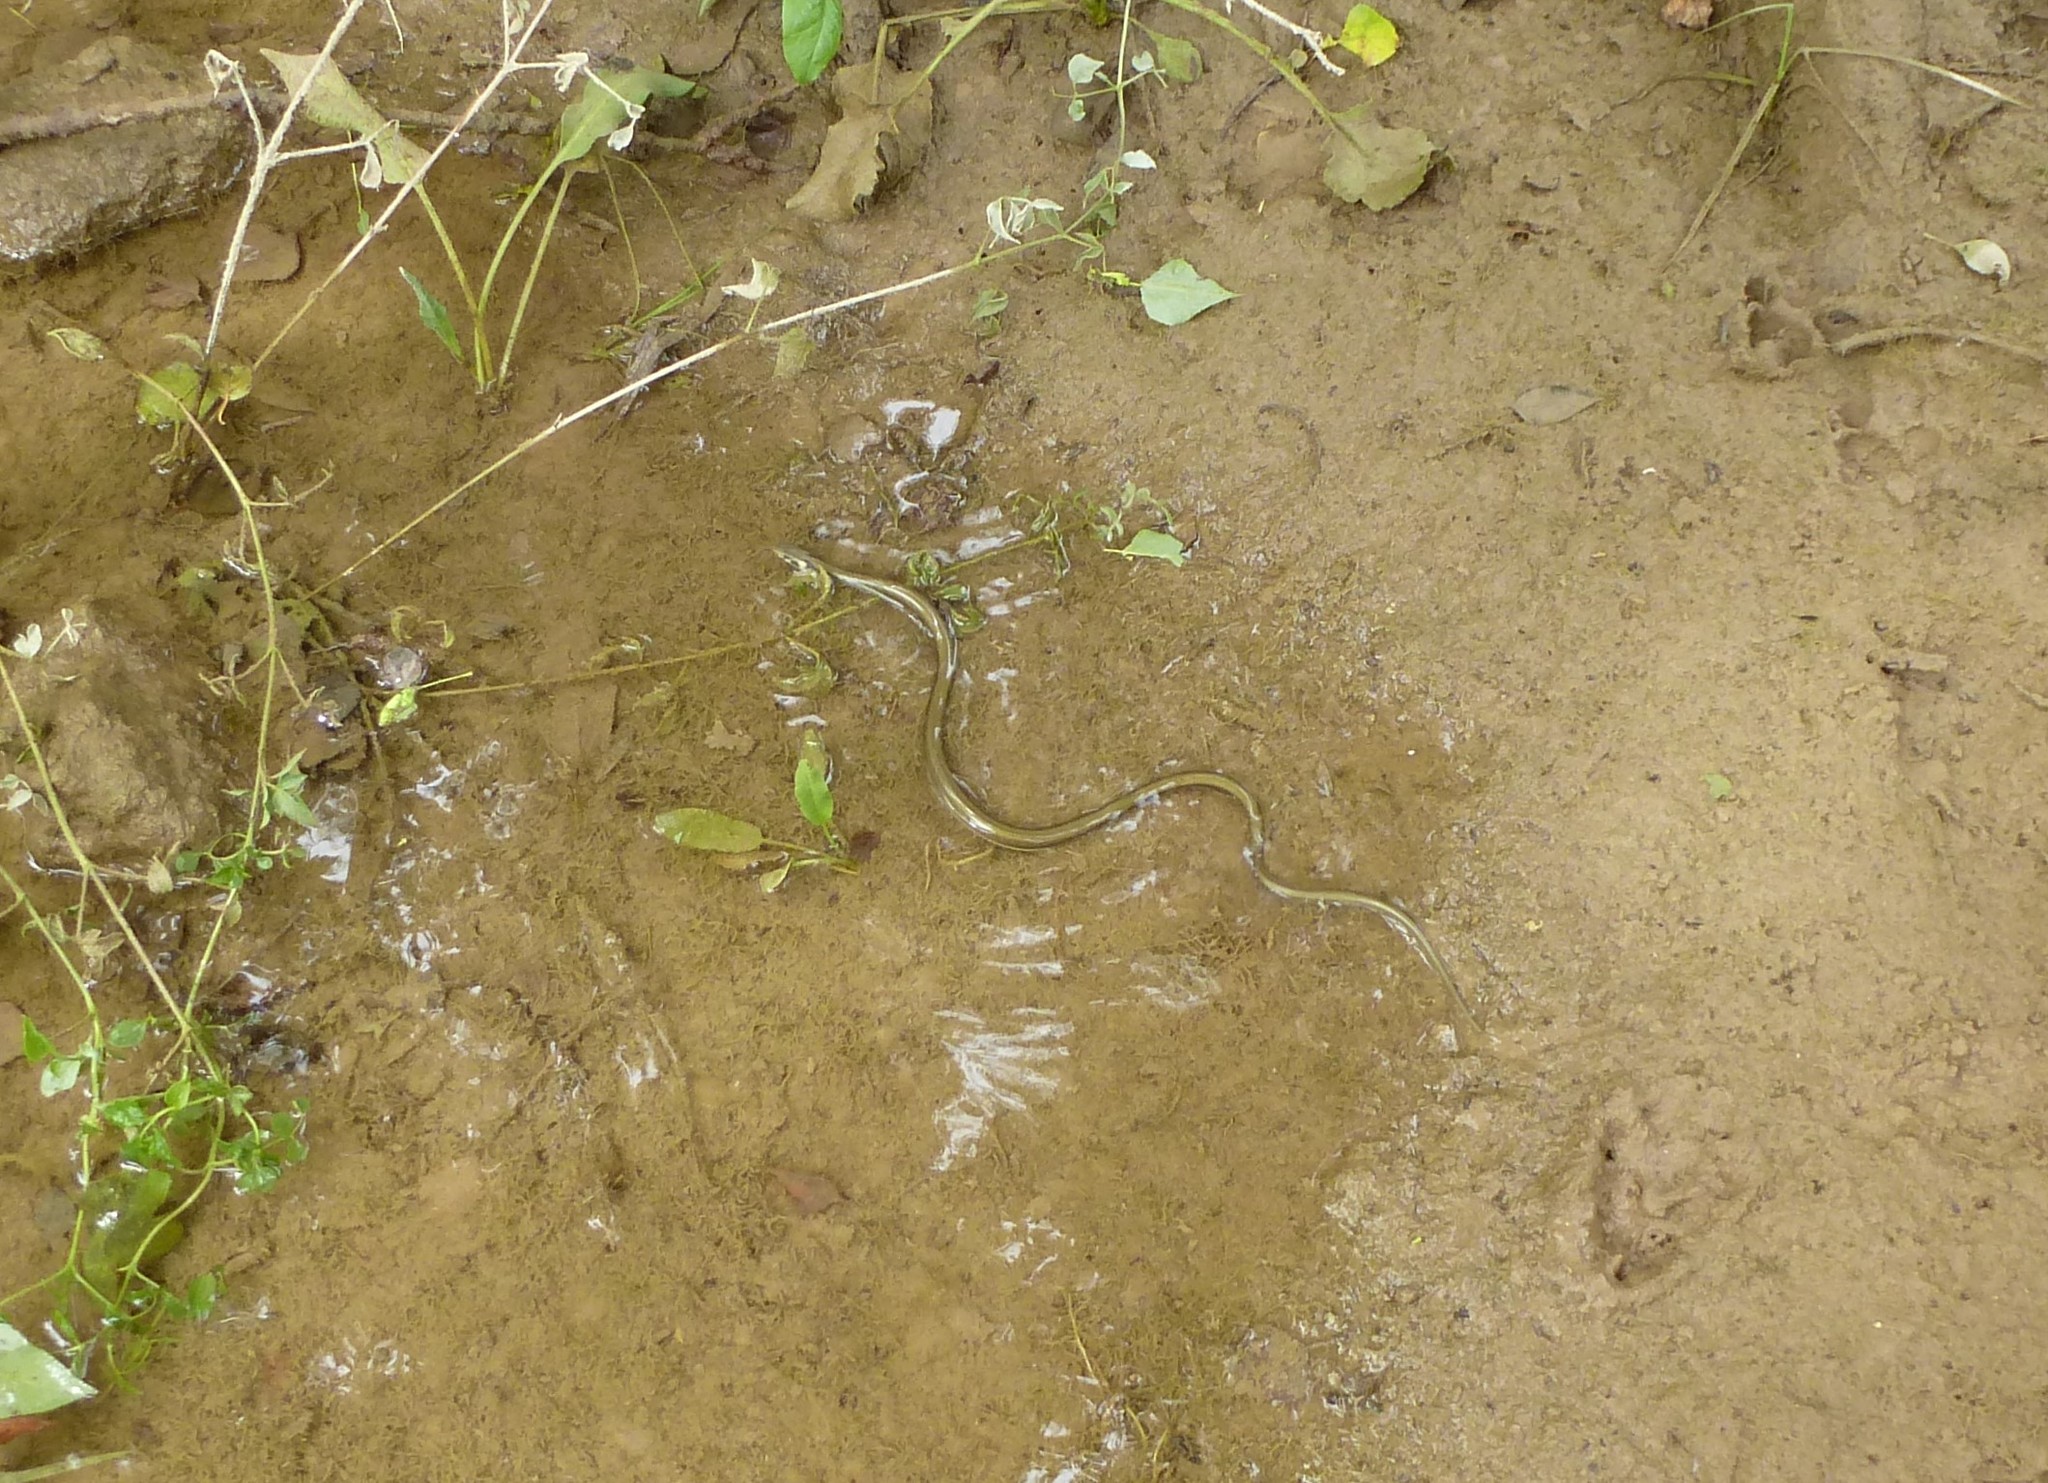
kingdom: Animalia
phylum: Chordata
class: Squamata
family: Colubridae
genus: Natrix
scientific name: Natrix natrix
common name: Grass snake
